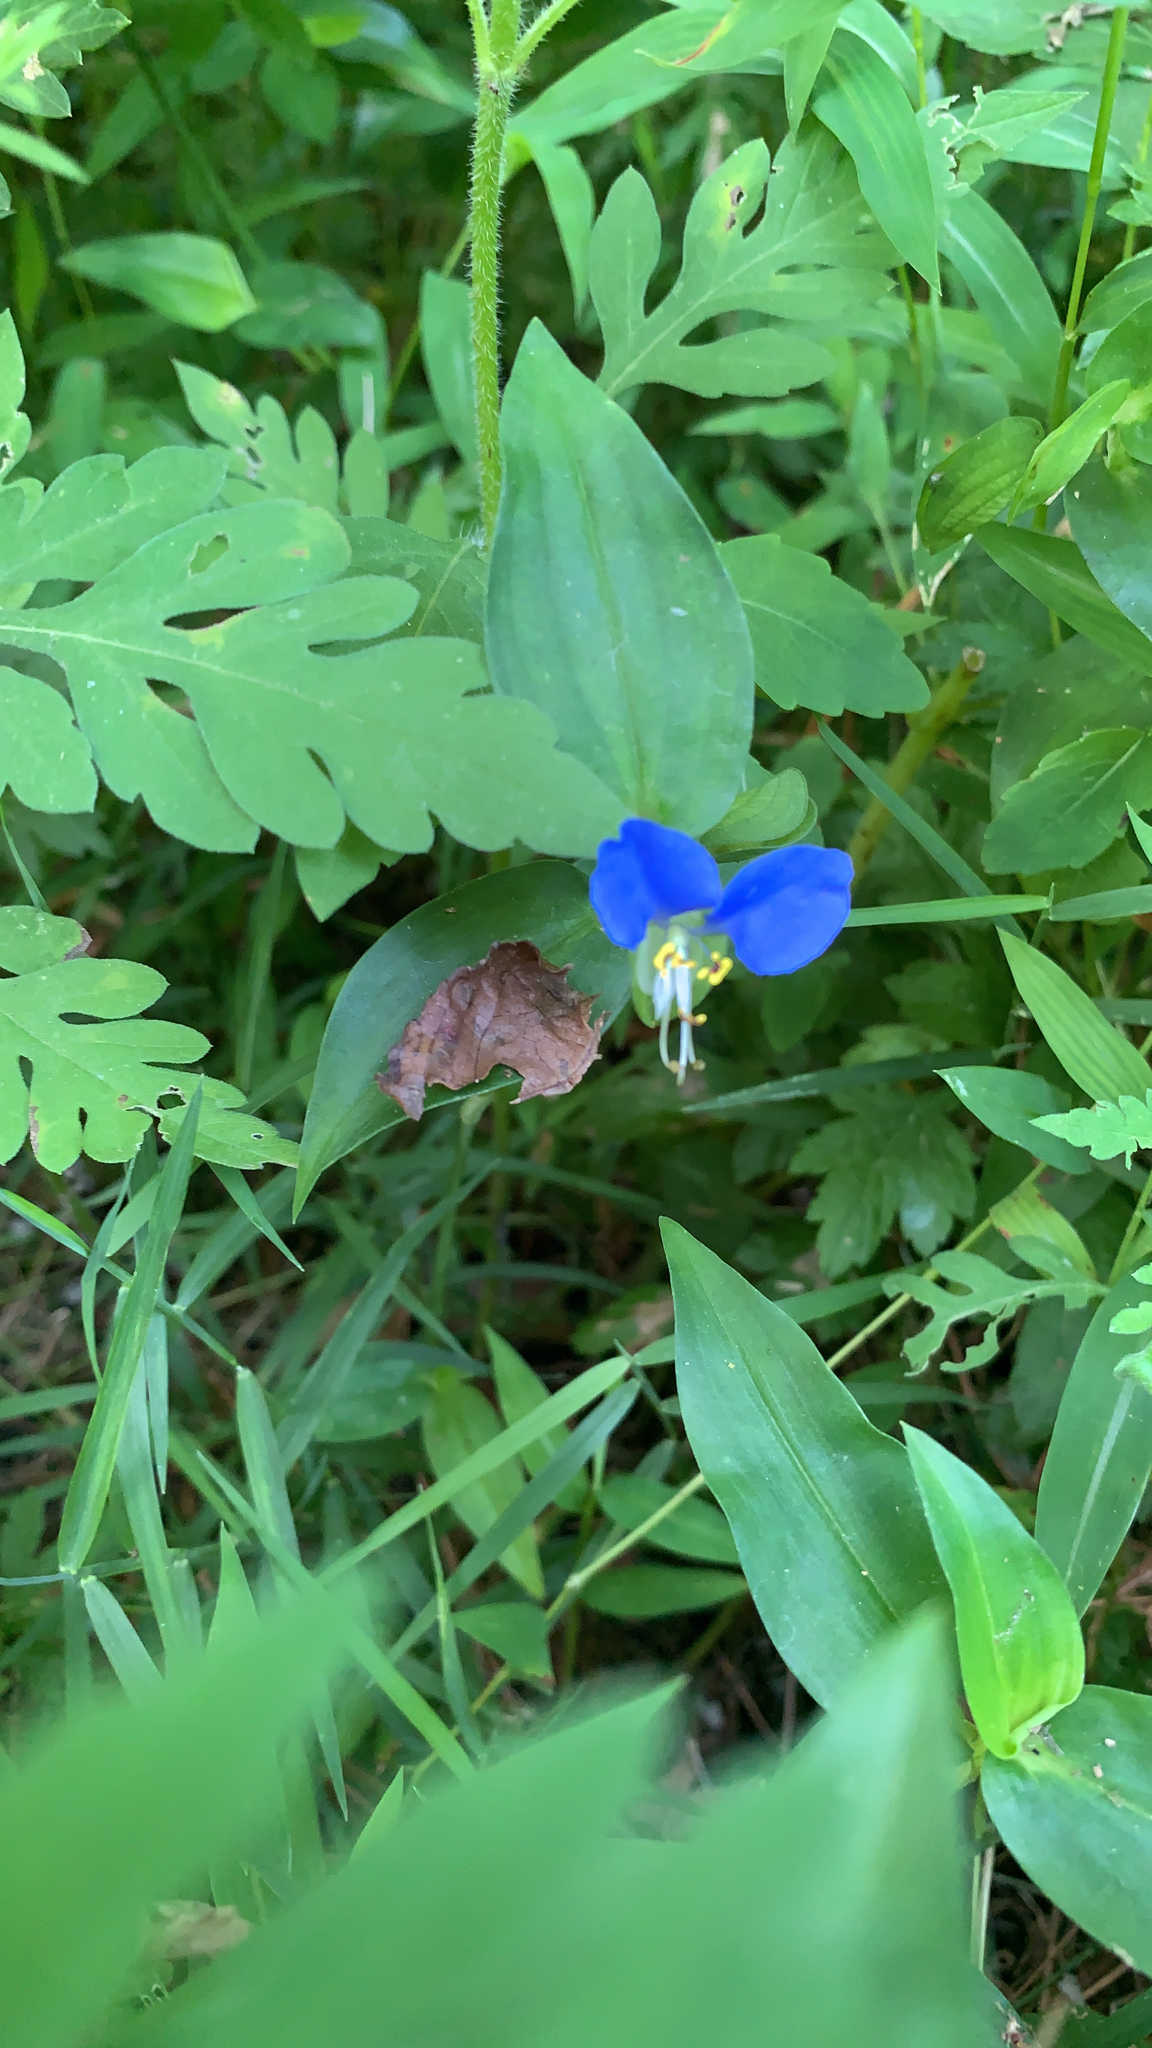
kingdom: Plantae
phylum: Tracheophyta
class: Liliopsida
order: Commelinales
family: Commelinaceae
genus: Commelina
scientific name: Commelina communis
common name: Asiatic dayflower
